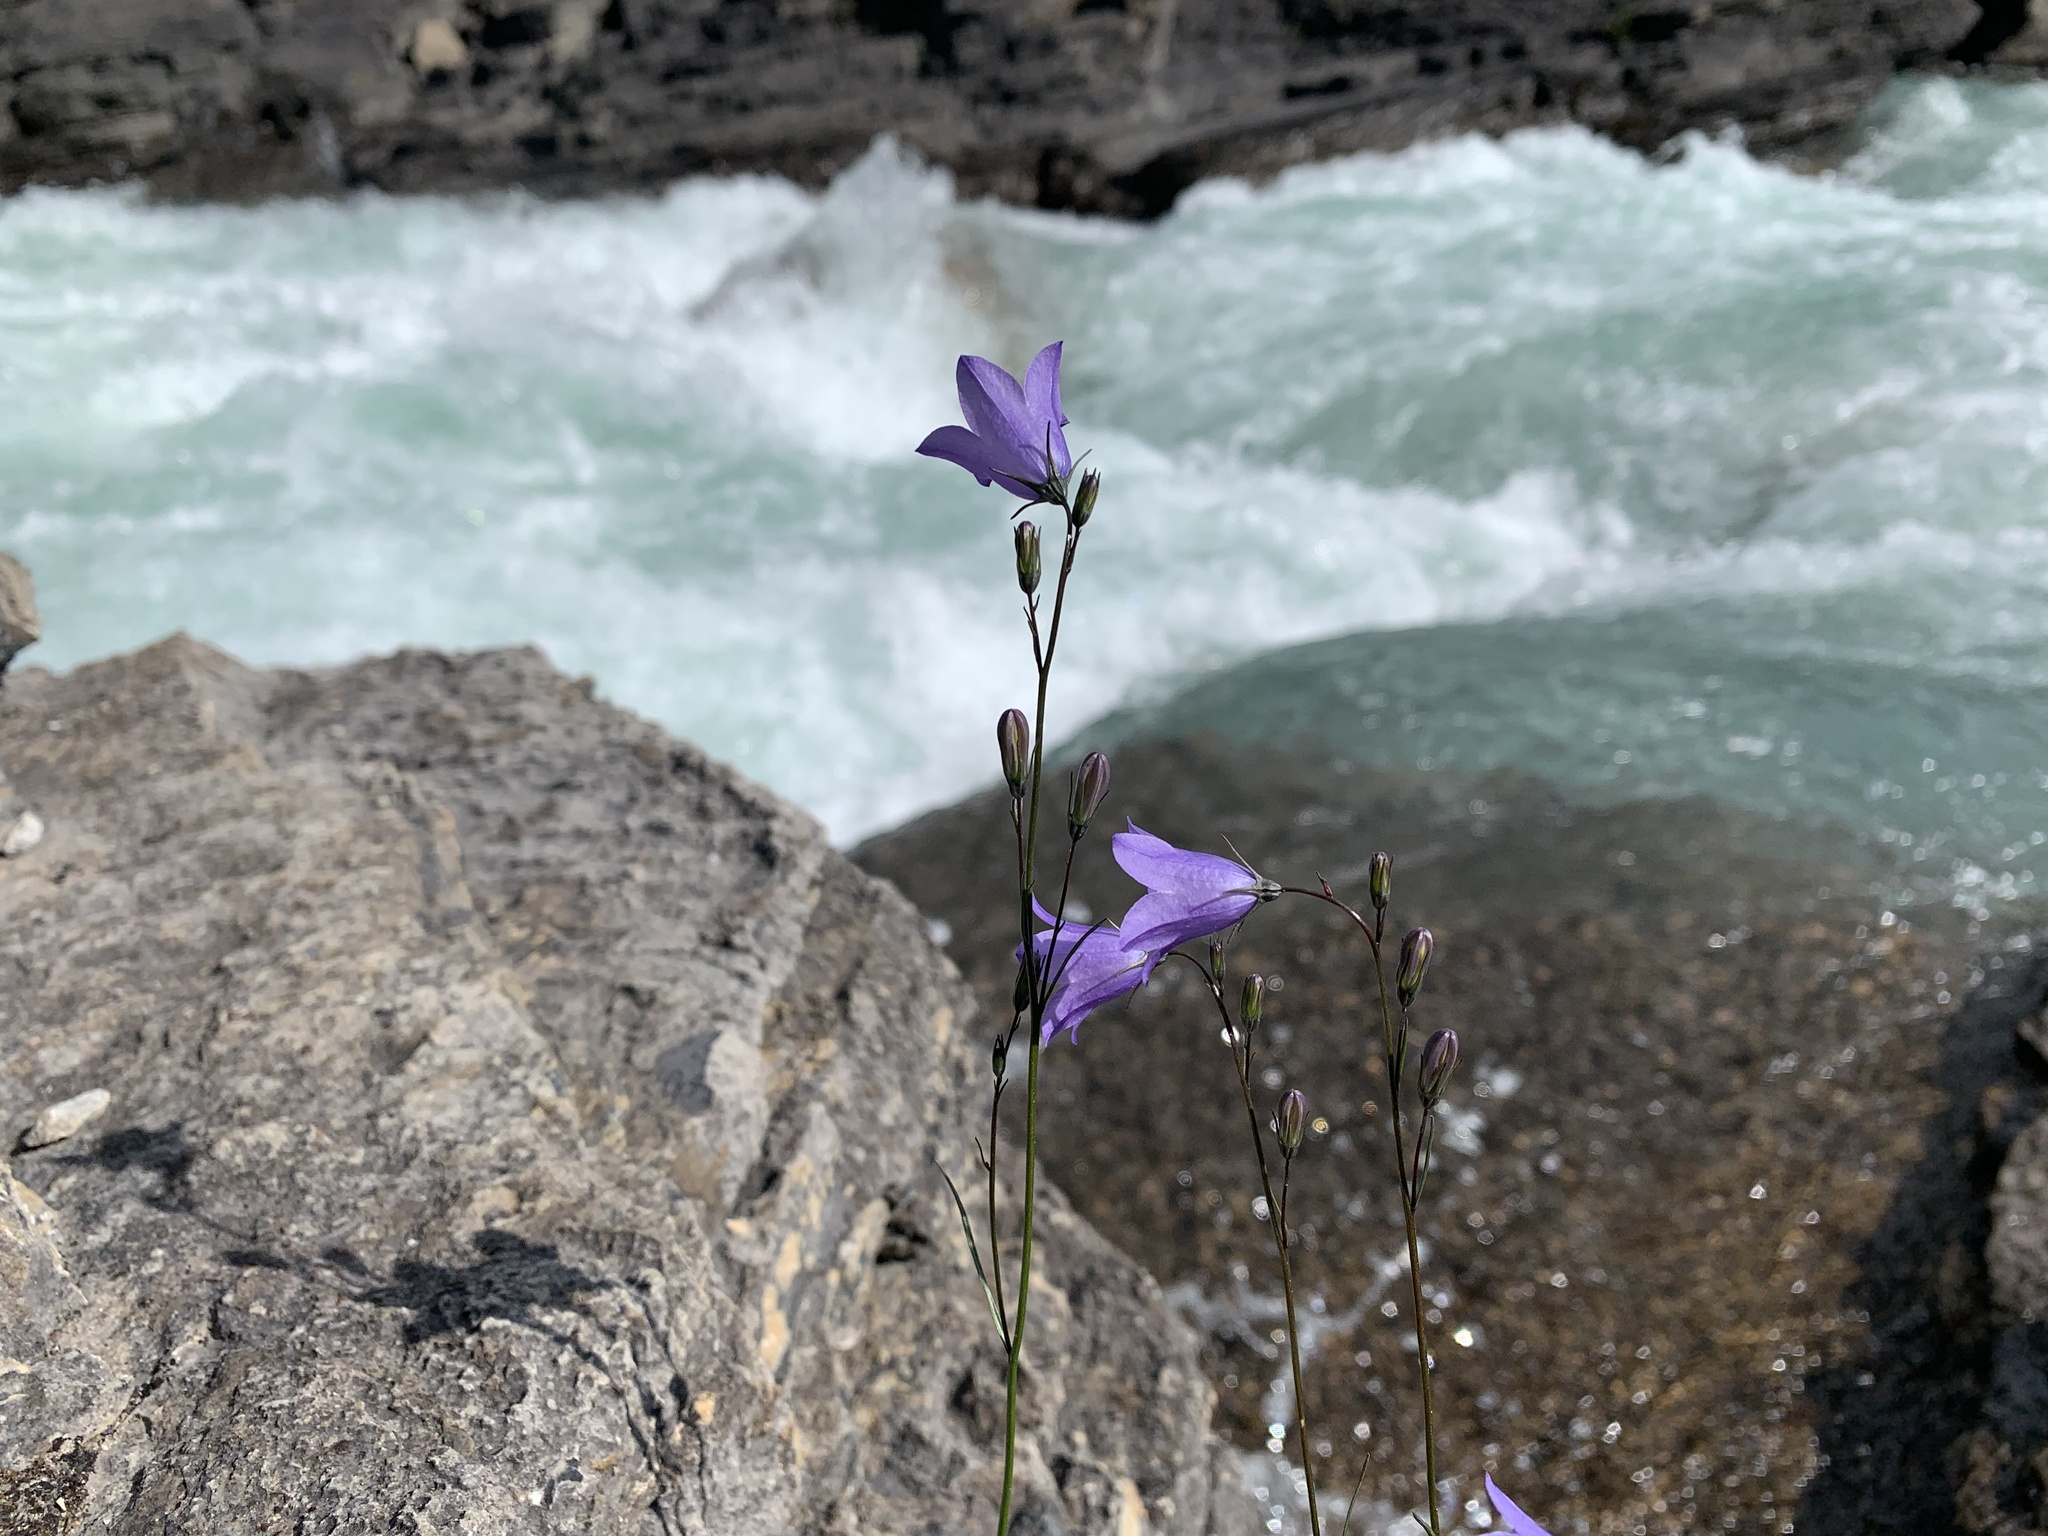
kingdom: Plantae
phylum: Tracheophyta
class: Magnoliopsida
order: Asterales
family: Campanulaceae
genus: Campanula
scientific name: Campanula alaskana
